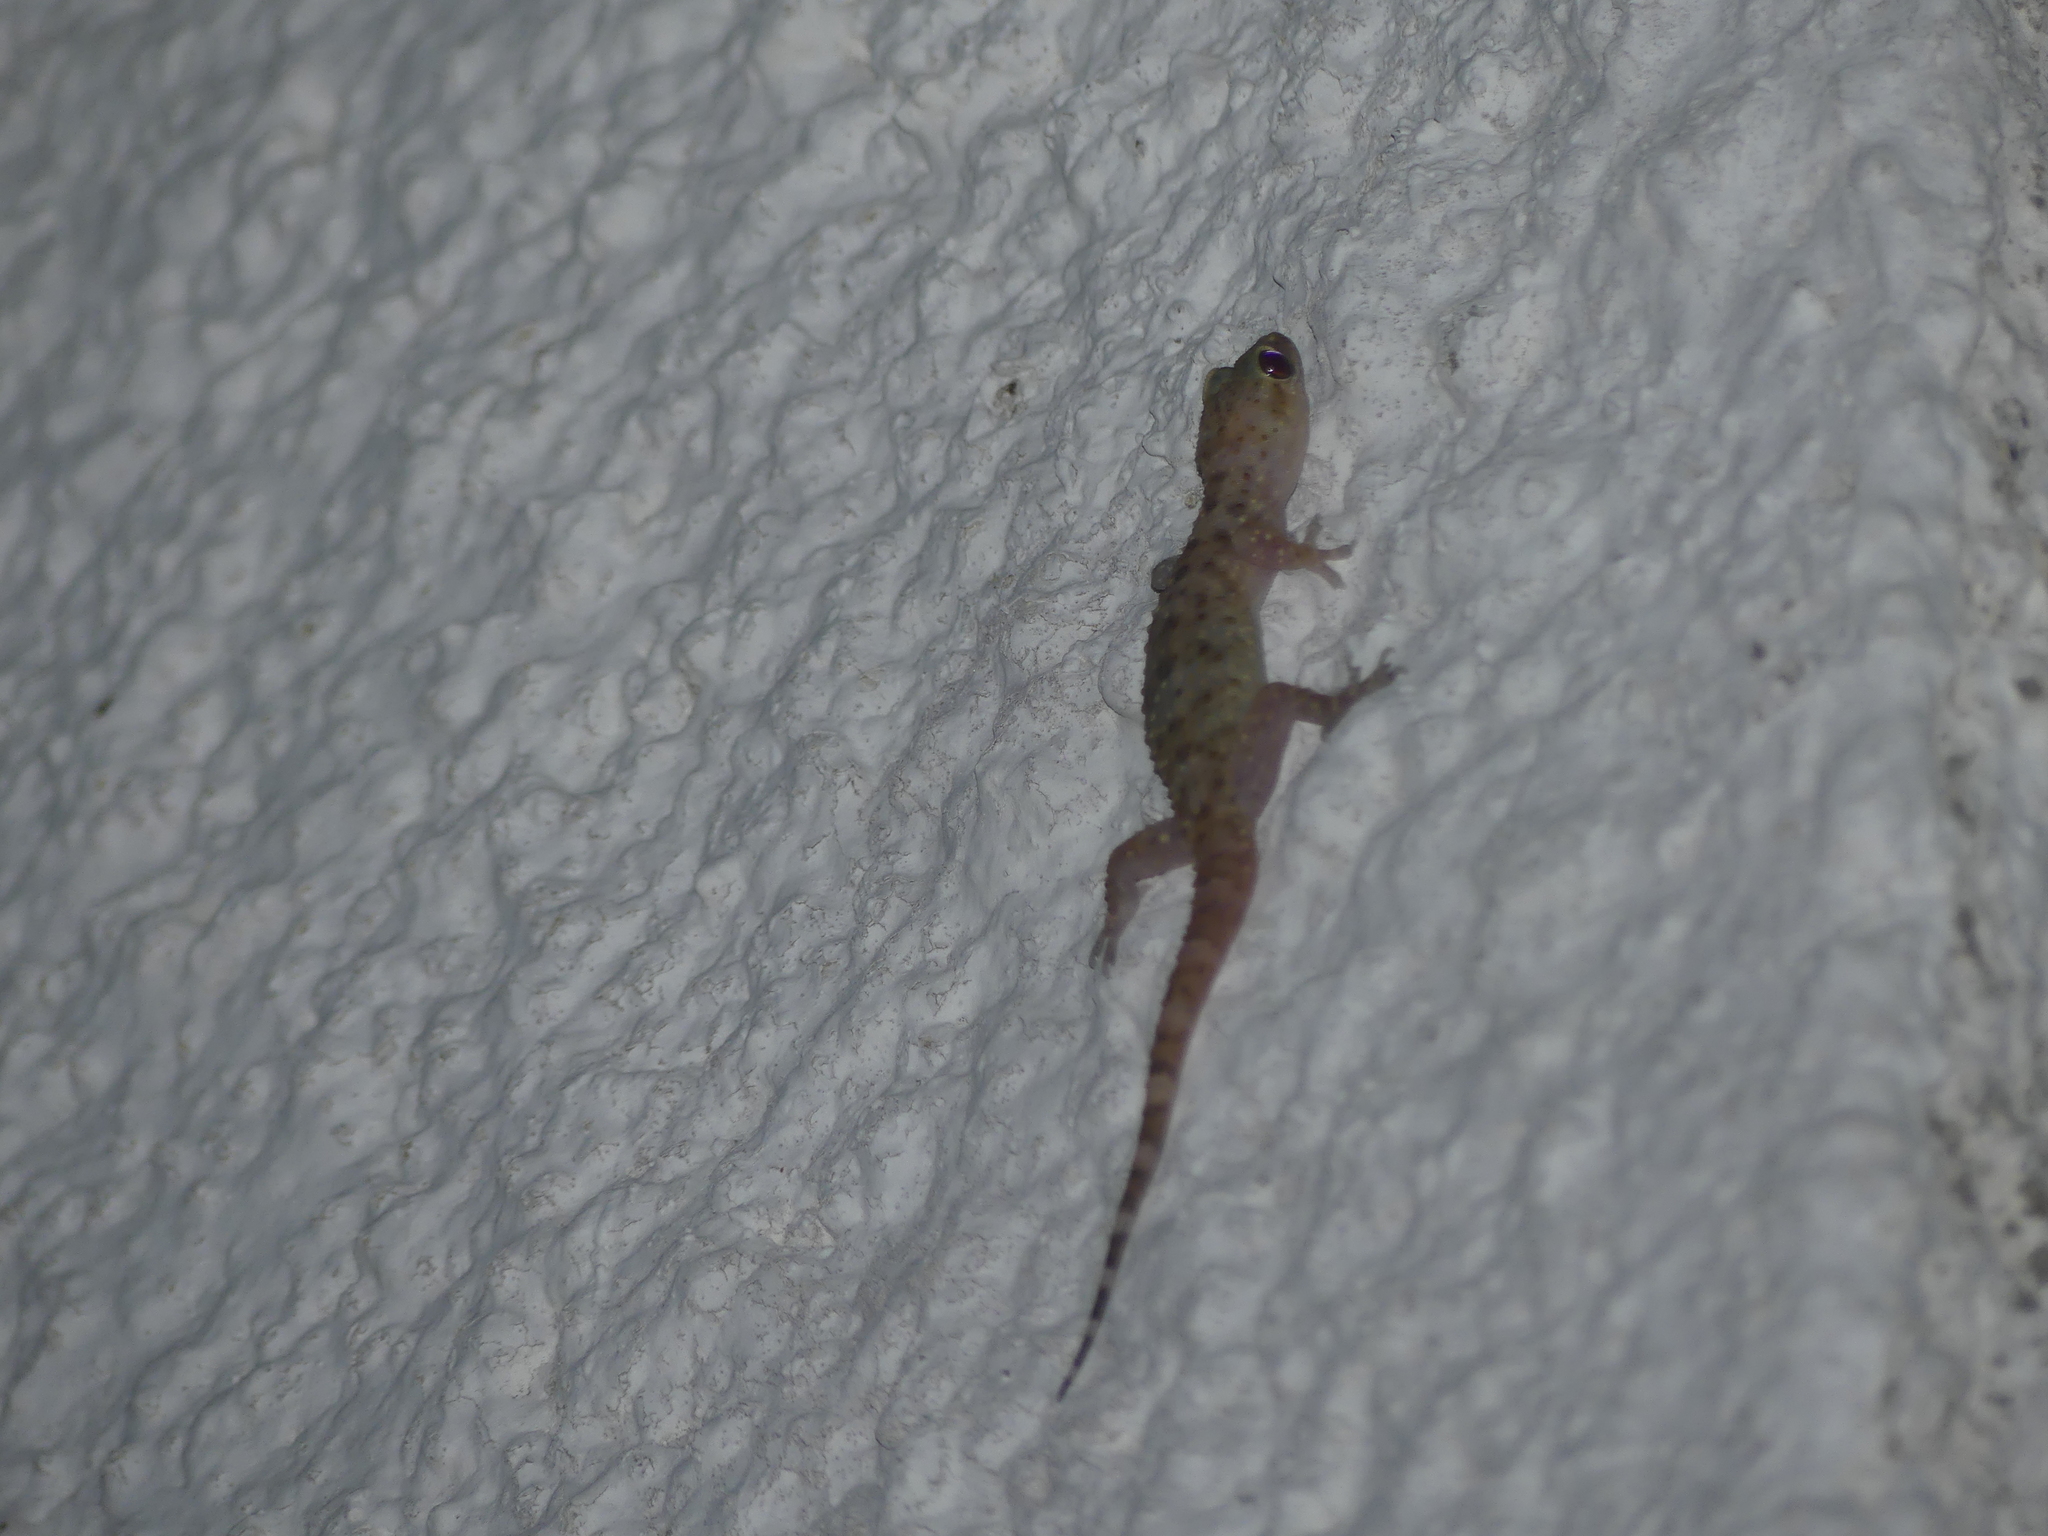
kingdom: Animalia
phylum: Chordata
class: Squamata
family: Gekkonidae
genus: Hemidactylus
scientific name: Hemidactylus turcicus
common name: Turkish gecko
